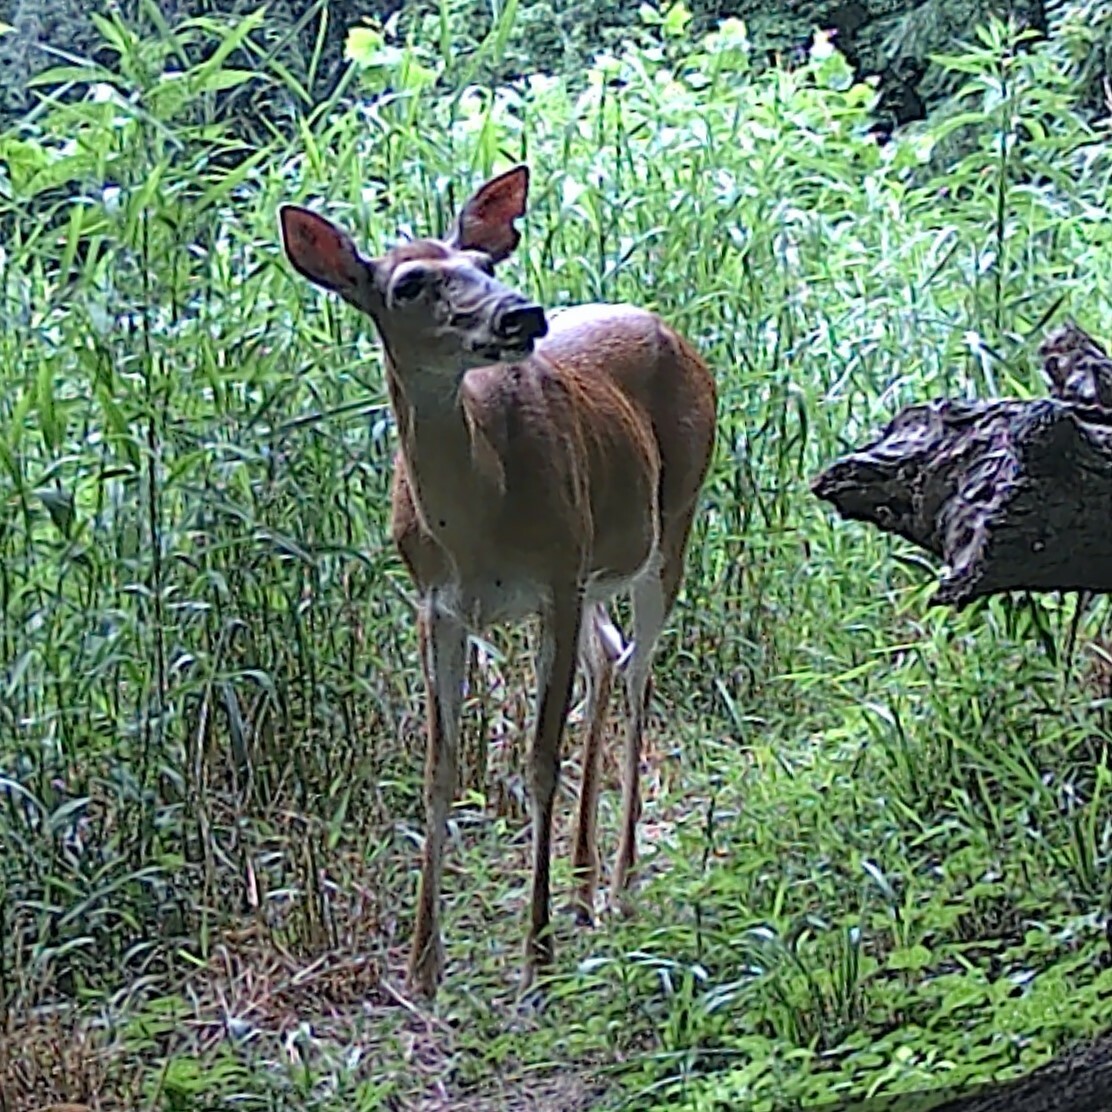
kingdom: Animalia
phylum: Chordata
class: Mammalia
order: Artiodactyla
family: Cervidae
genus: Odocoileus
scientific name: Odocoileus virginianus
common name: White-tailed deer
